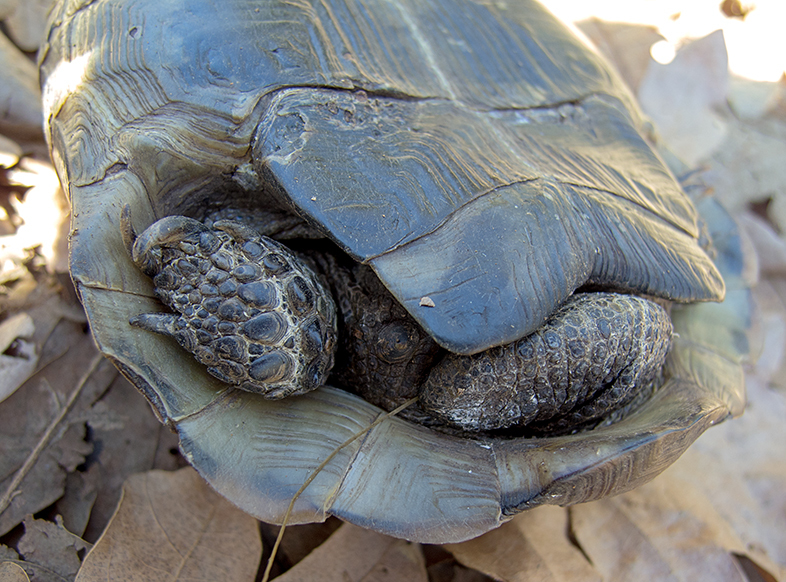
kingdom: Animalia
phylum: Chordata
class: Testudines
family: Testudinidae
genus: Testudo
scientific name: Testudo graeca
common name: Common tortoise
